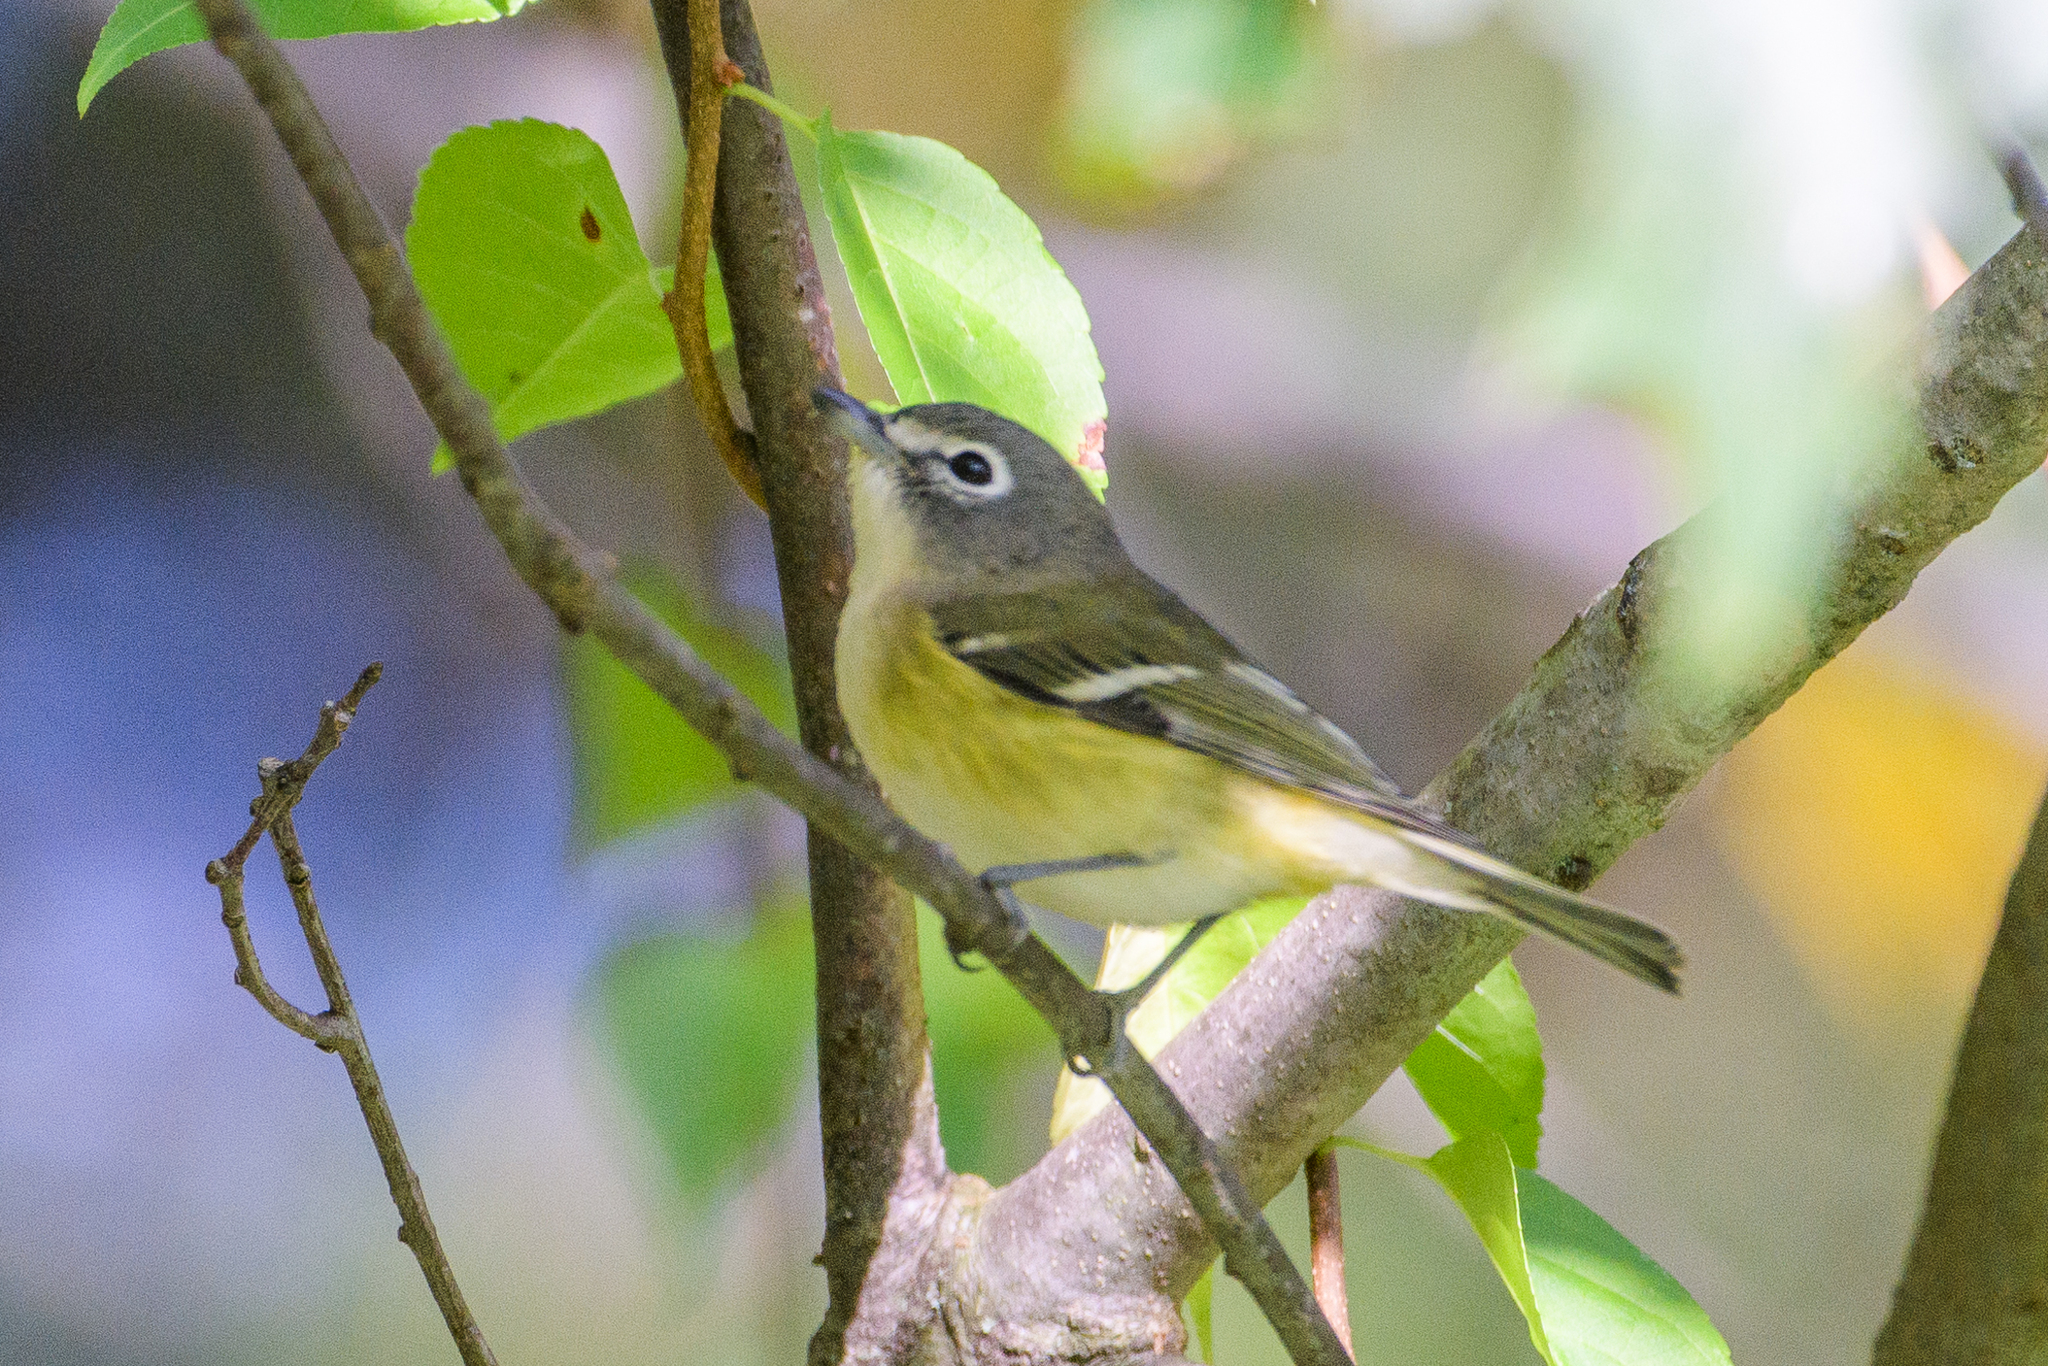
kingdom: Animalia
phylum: Chordata
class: Aves
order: Passeriformes
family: Vireonidae
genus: Vireo
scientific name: Vireo solitarius
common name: Blue-headed vireo
